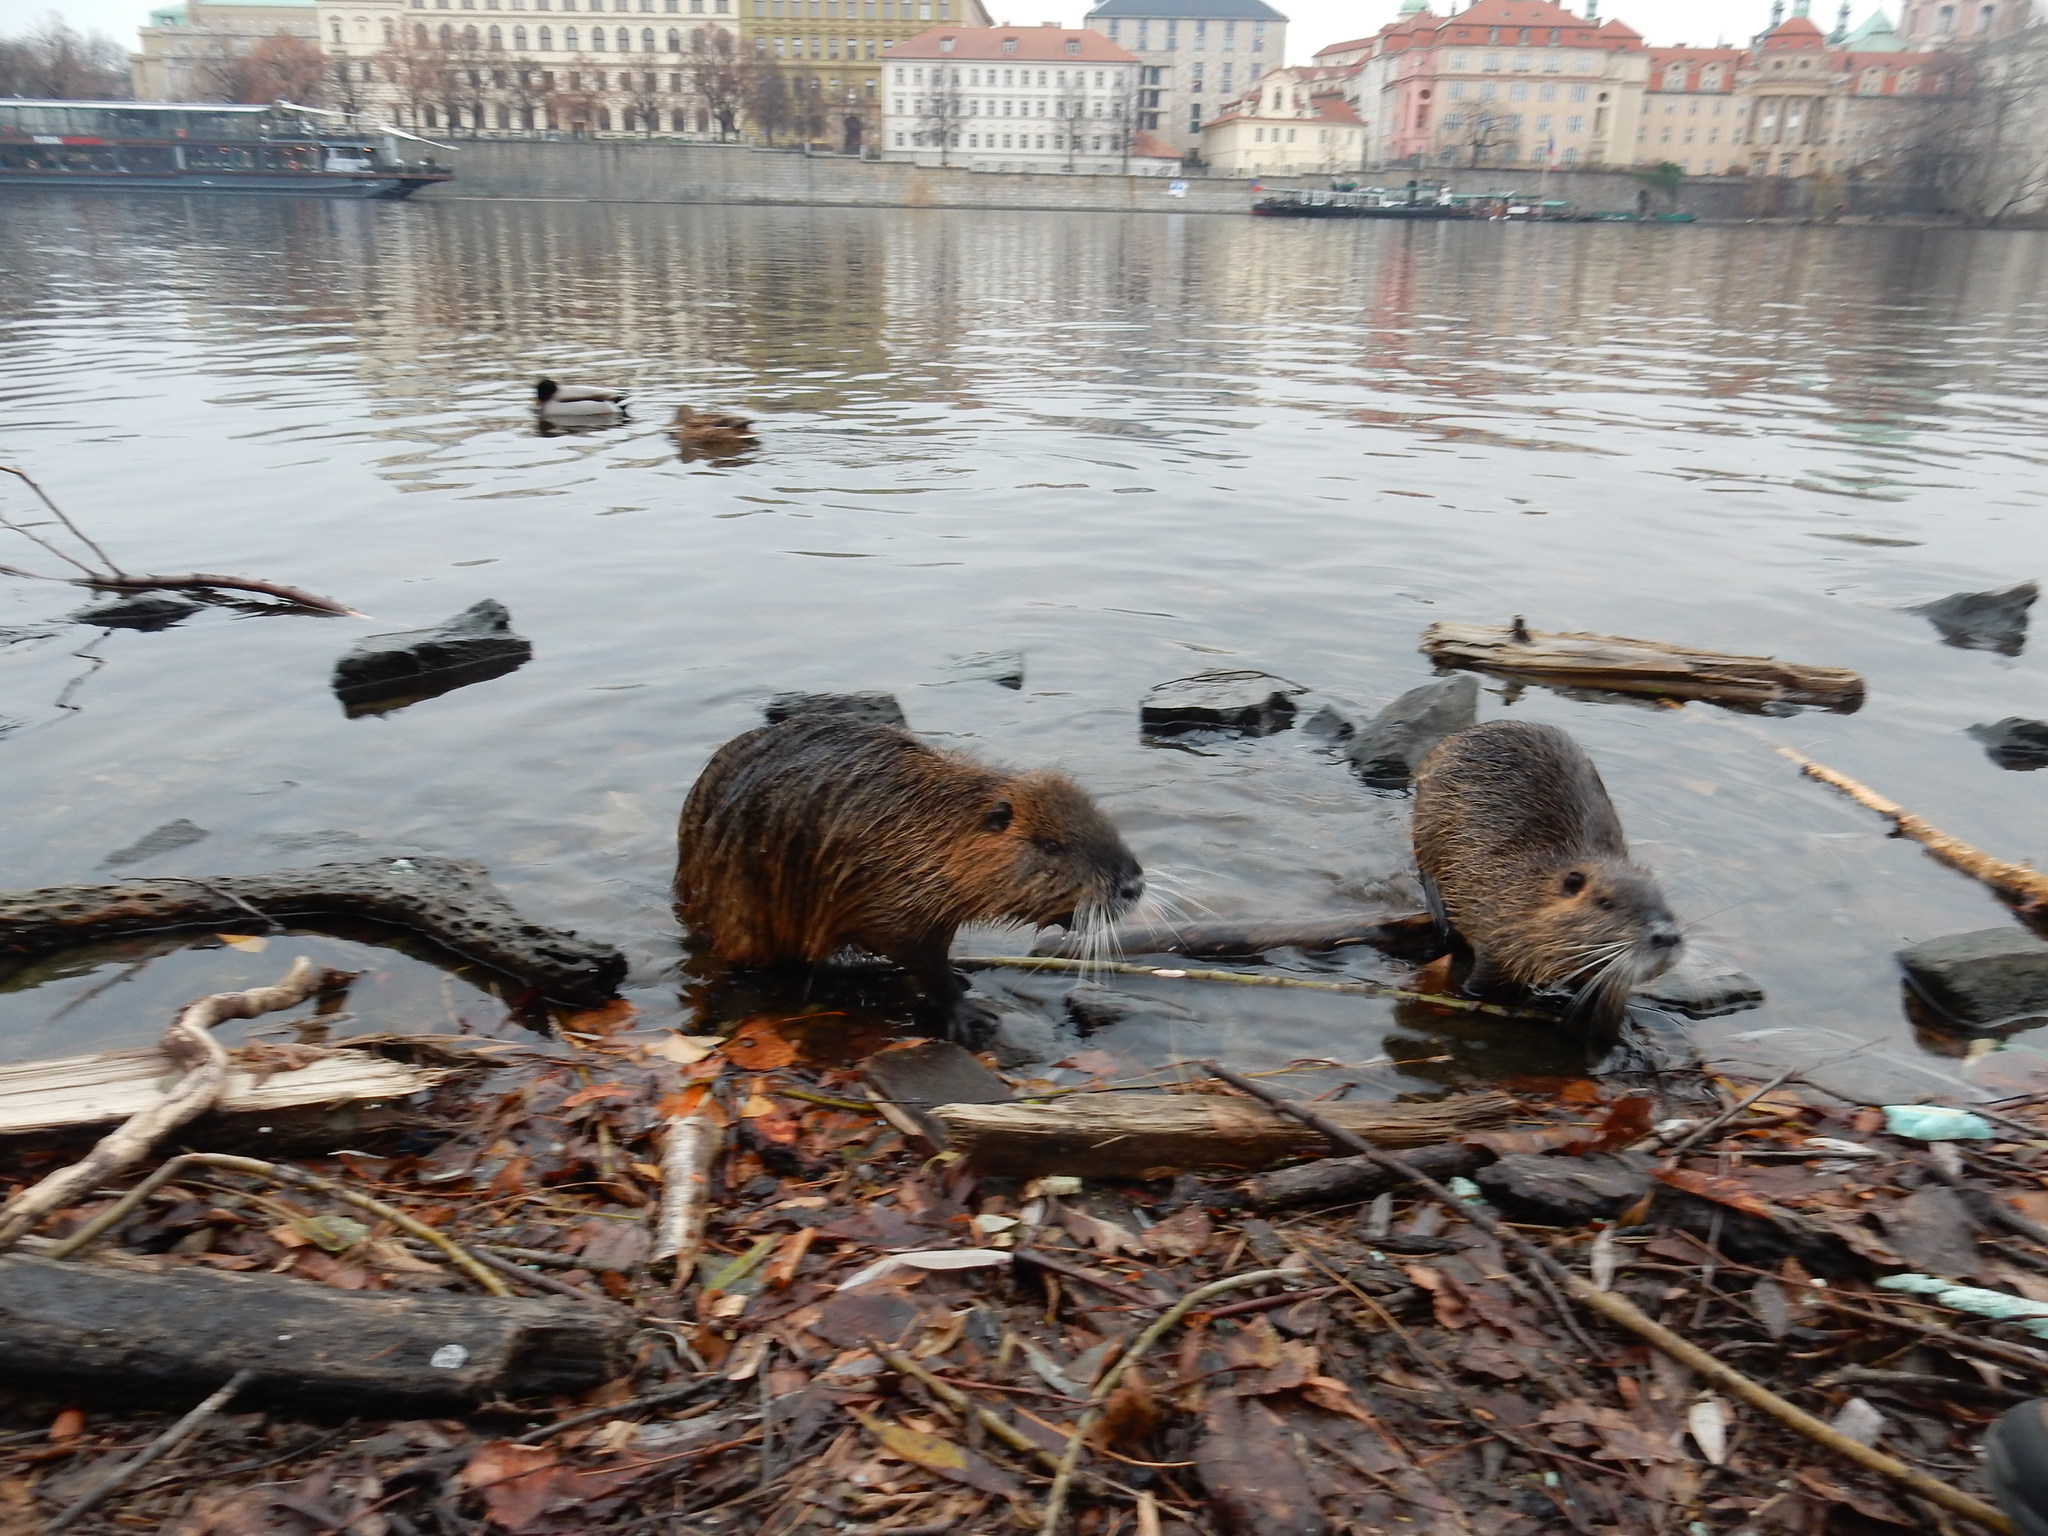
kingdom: Animalia
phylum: Chordata
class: Mammalia
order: Rodentia
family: Myocastoridae
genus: Myocastor
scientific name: Myocastor coypus
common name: Coypu
